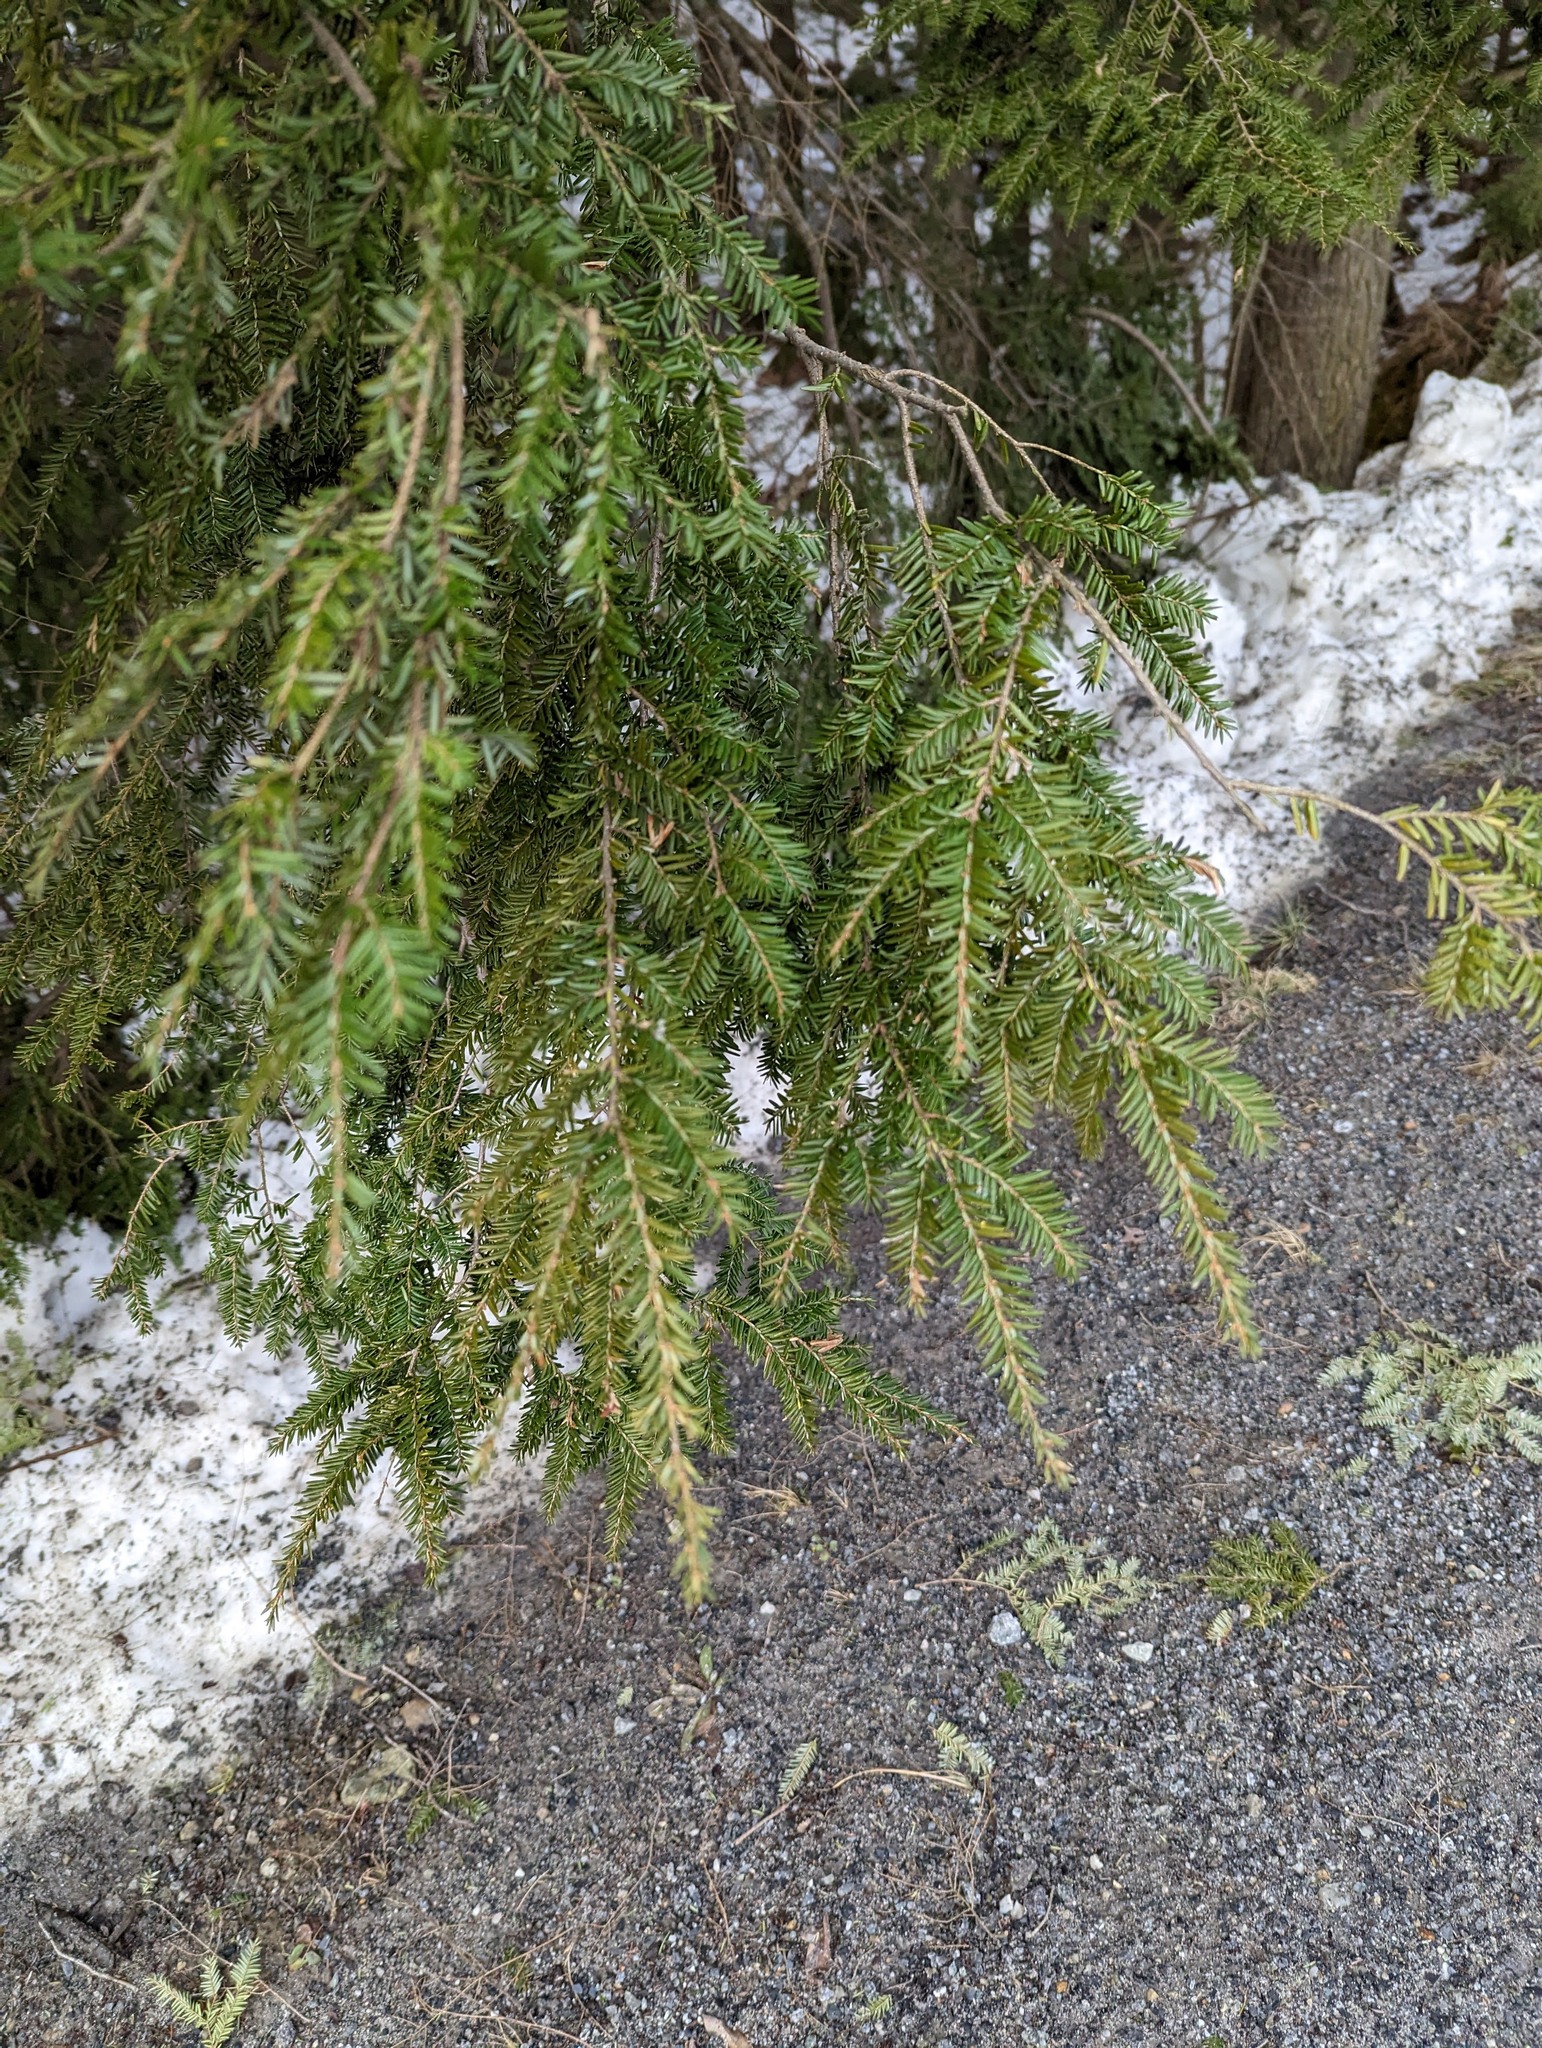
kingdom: Plantae
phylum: Tracheophyta
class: Pinopsida
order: Pinales
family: Pinaceae
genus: Tsuga
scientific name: Tsuga canadensis
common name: Eastern hemlock
